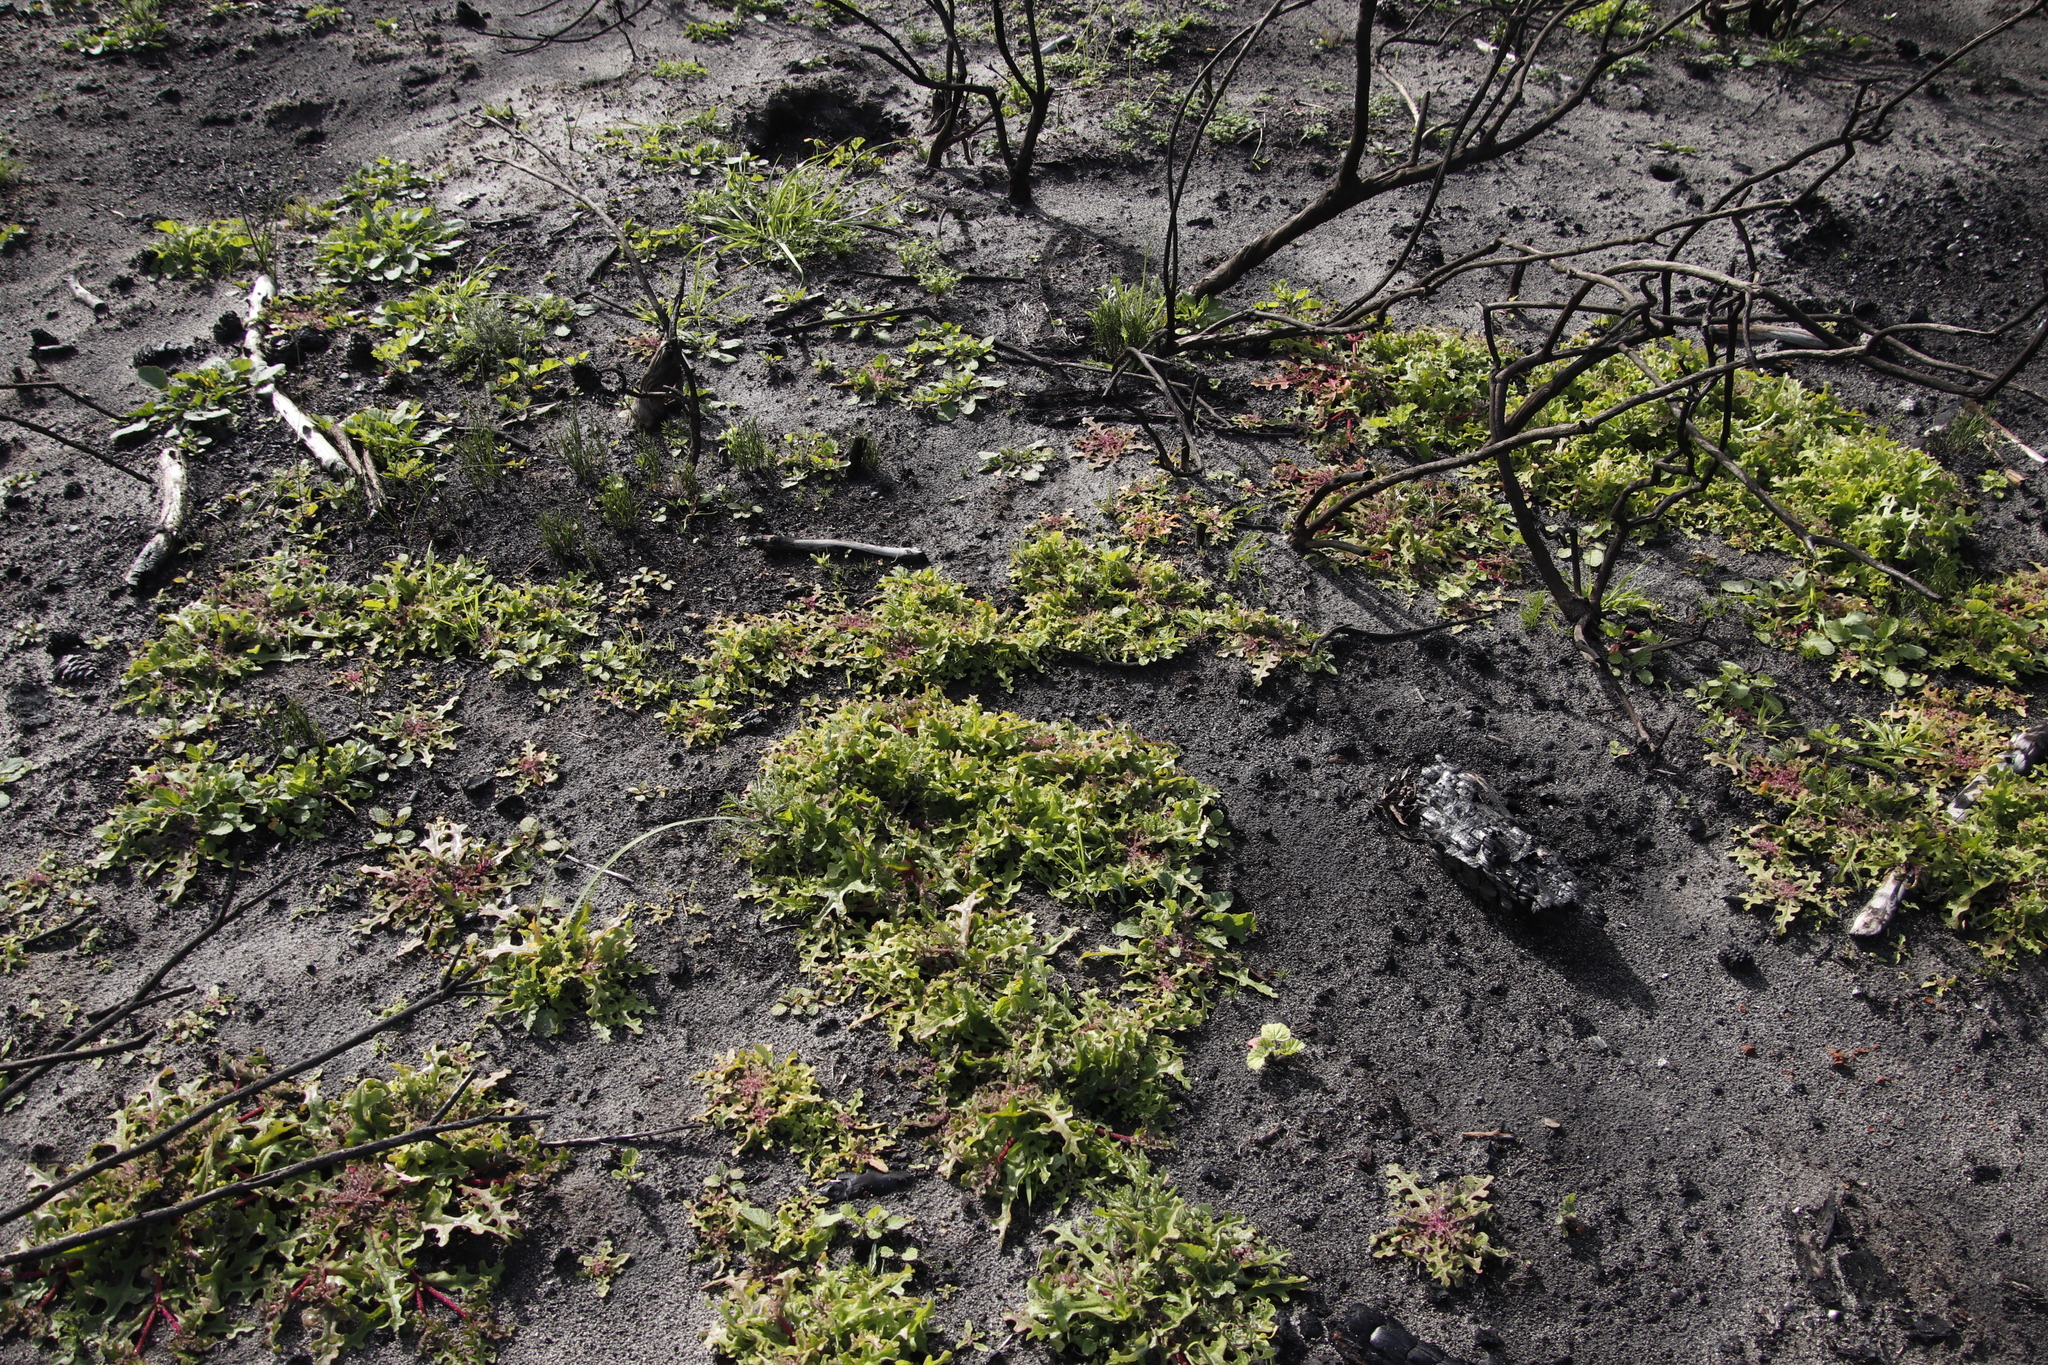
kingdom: Plantae
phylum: Tracheophyta
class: Magnoliopsida
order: Caryophyllales
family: Aizoaceae
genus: Cleretum
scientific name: Cleretum herrei
